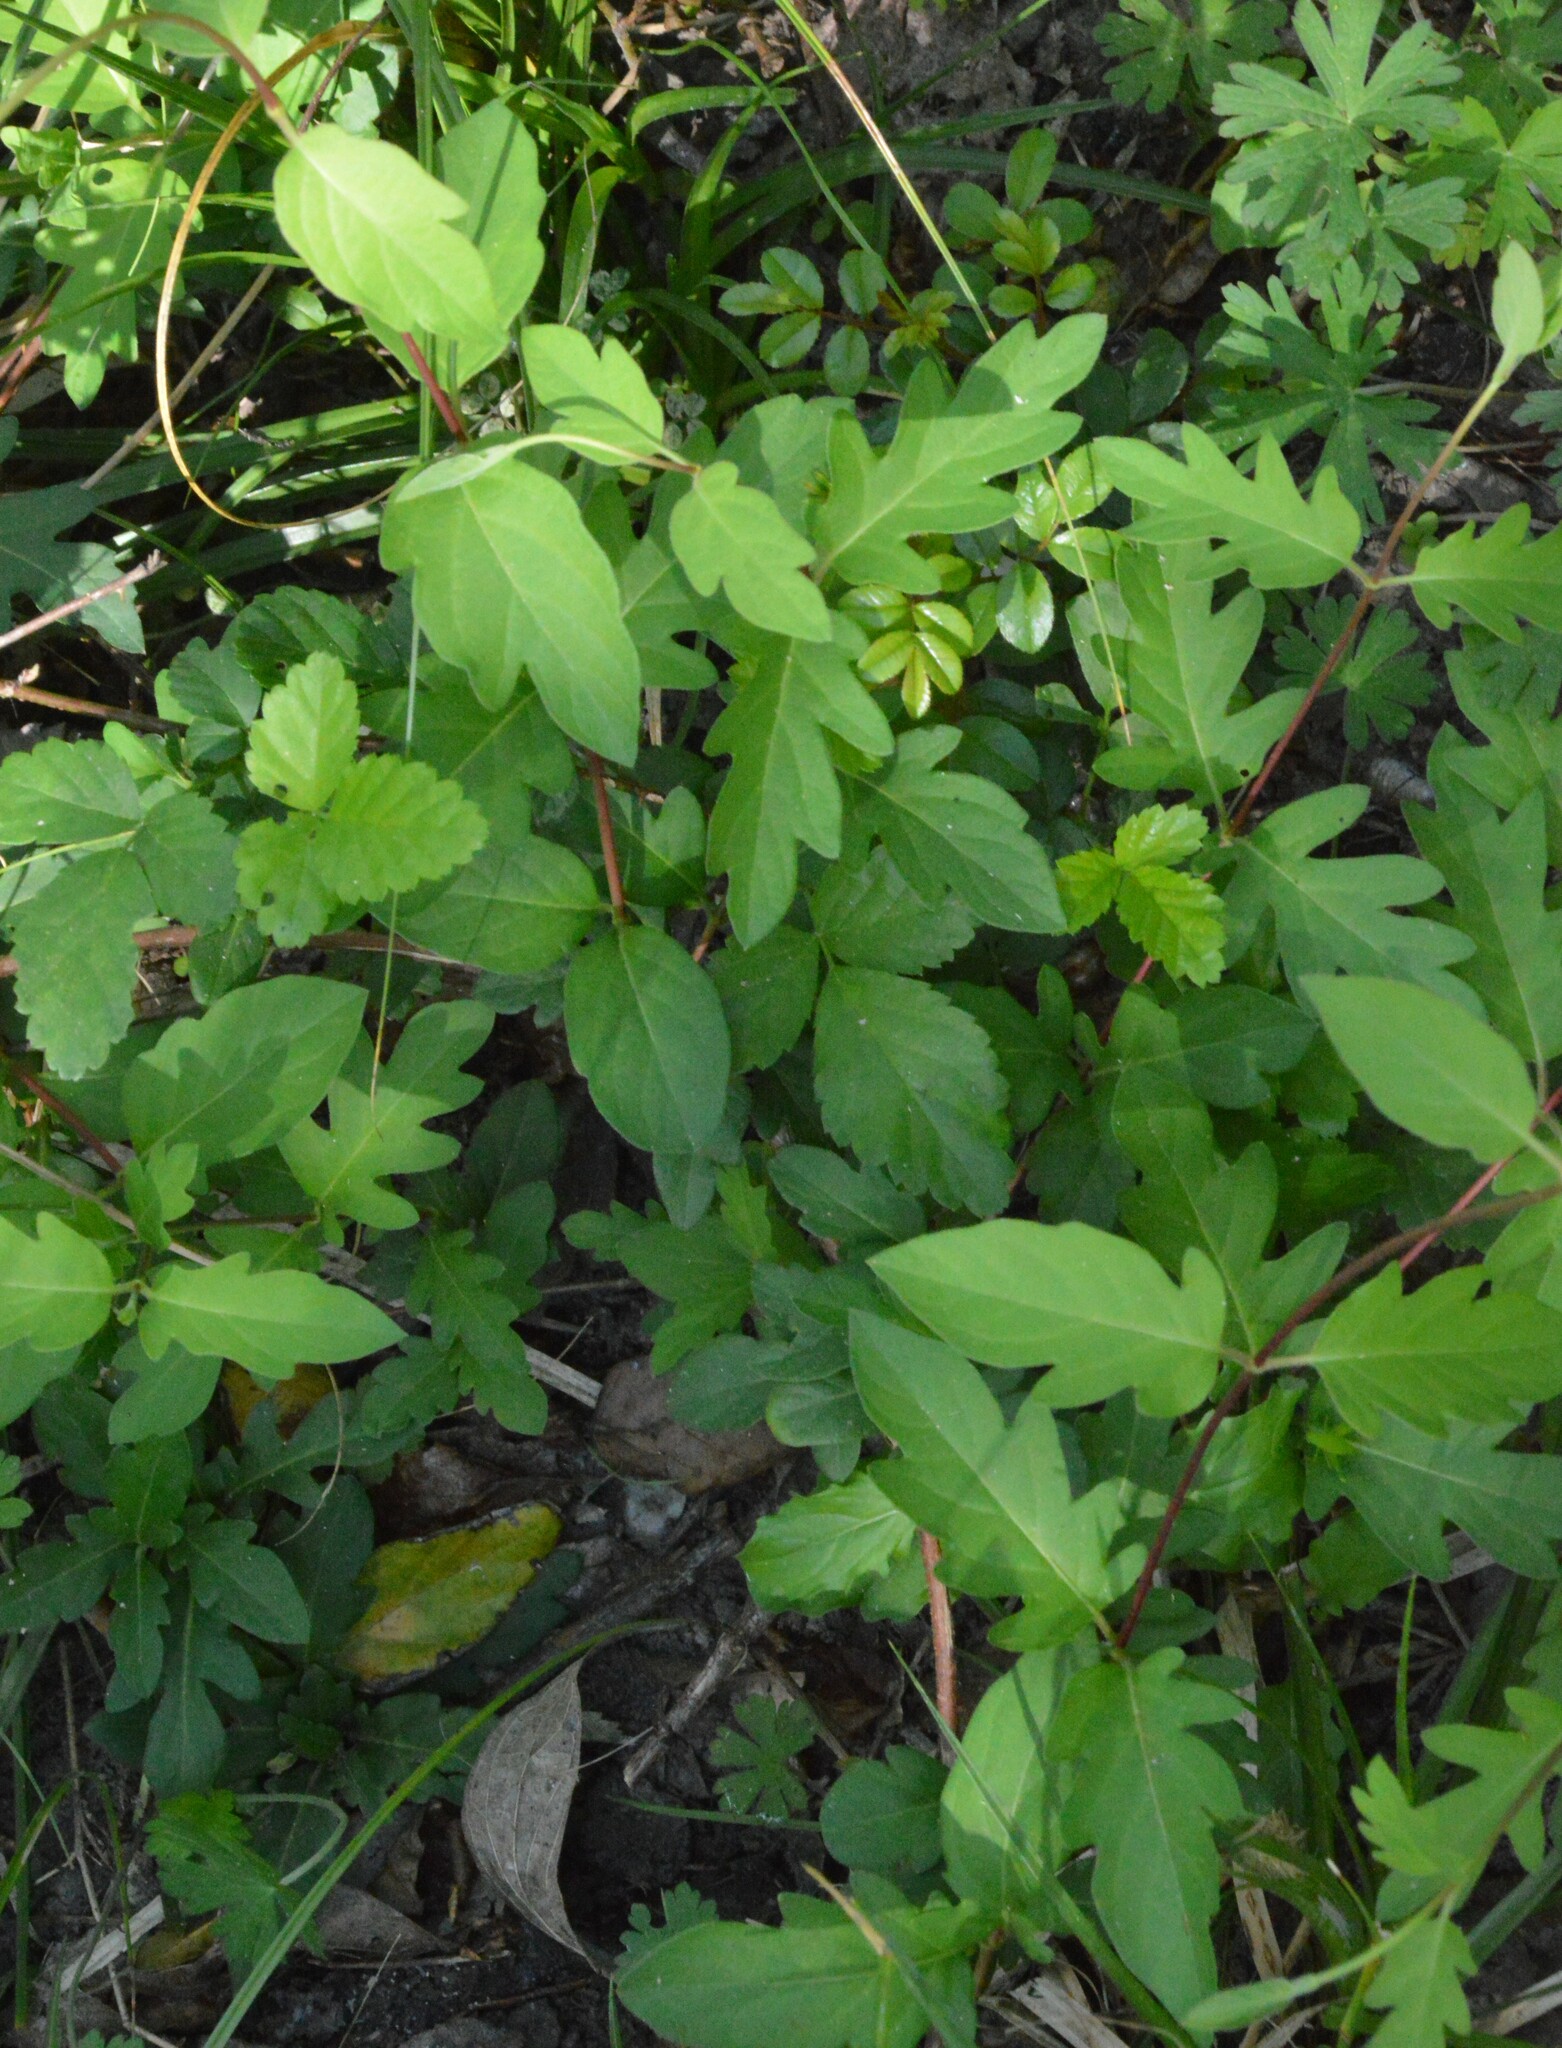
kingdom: Plantae
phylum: Tracheophyta
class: Magnoliopsida
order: Dipsacales
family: Caprifoliaceae
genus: Lonicera
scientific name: Lonicera japonica
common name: Japanese honeysuckle
